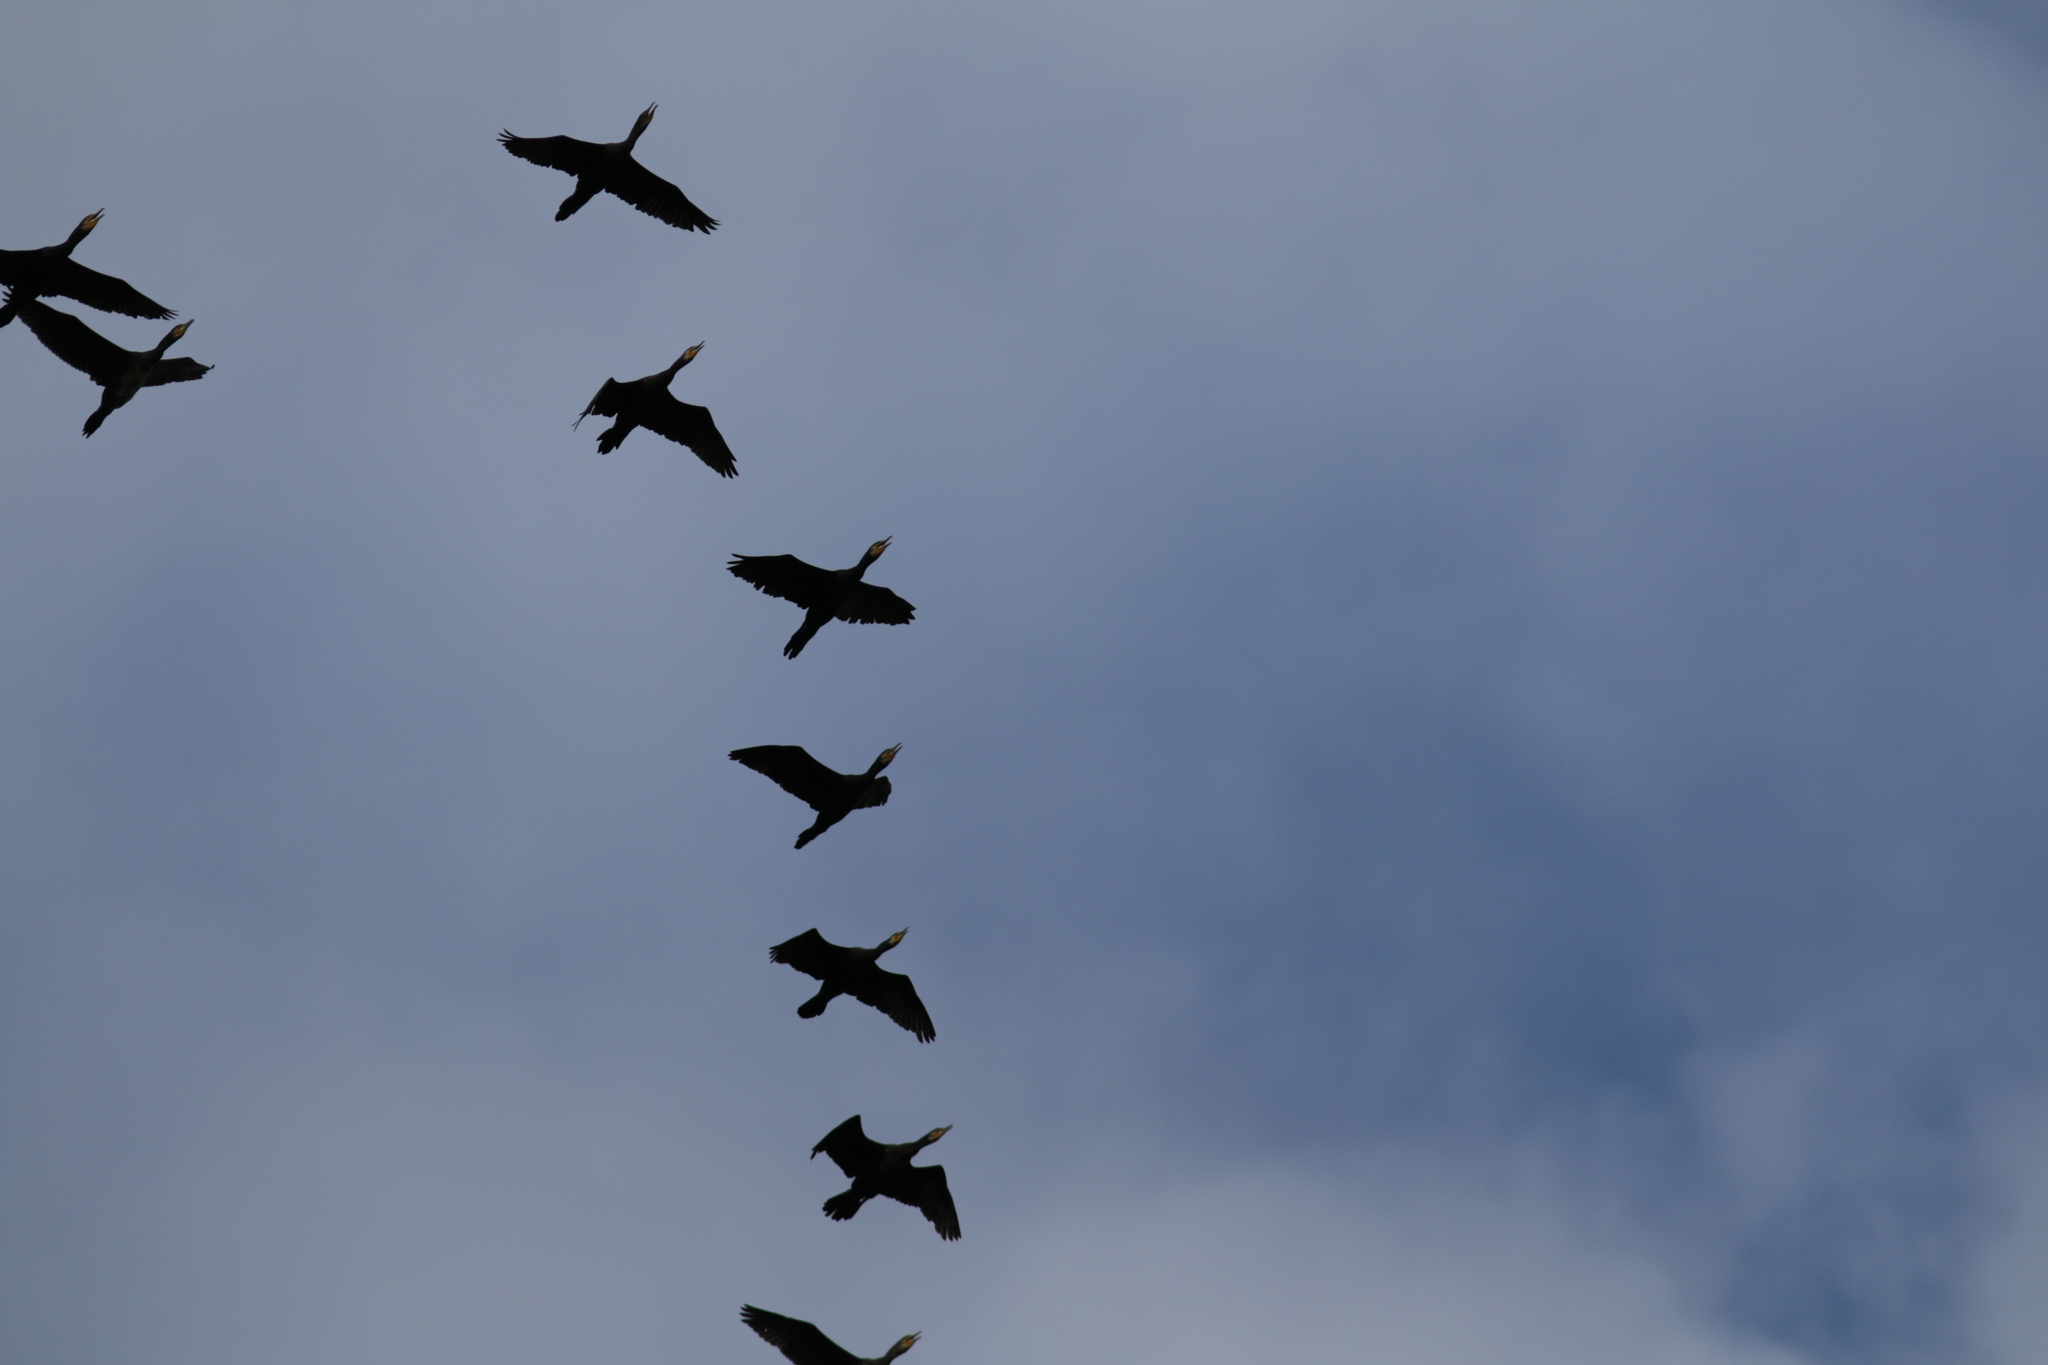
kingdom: Animalia
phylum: Chordata
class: Aves
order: Suliformes
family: Phalacrocoracidae
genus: Phalacrocorax
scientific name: Phalacrocorax carbo
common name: Great cormorant
